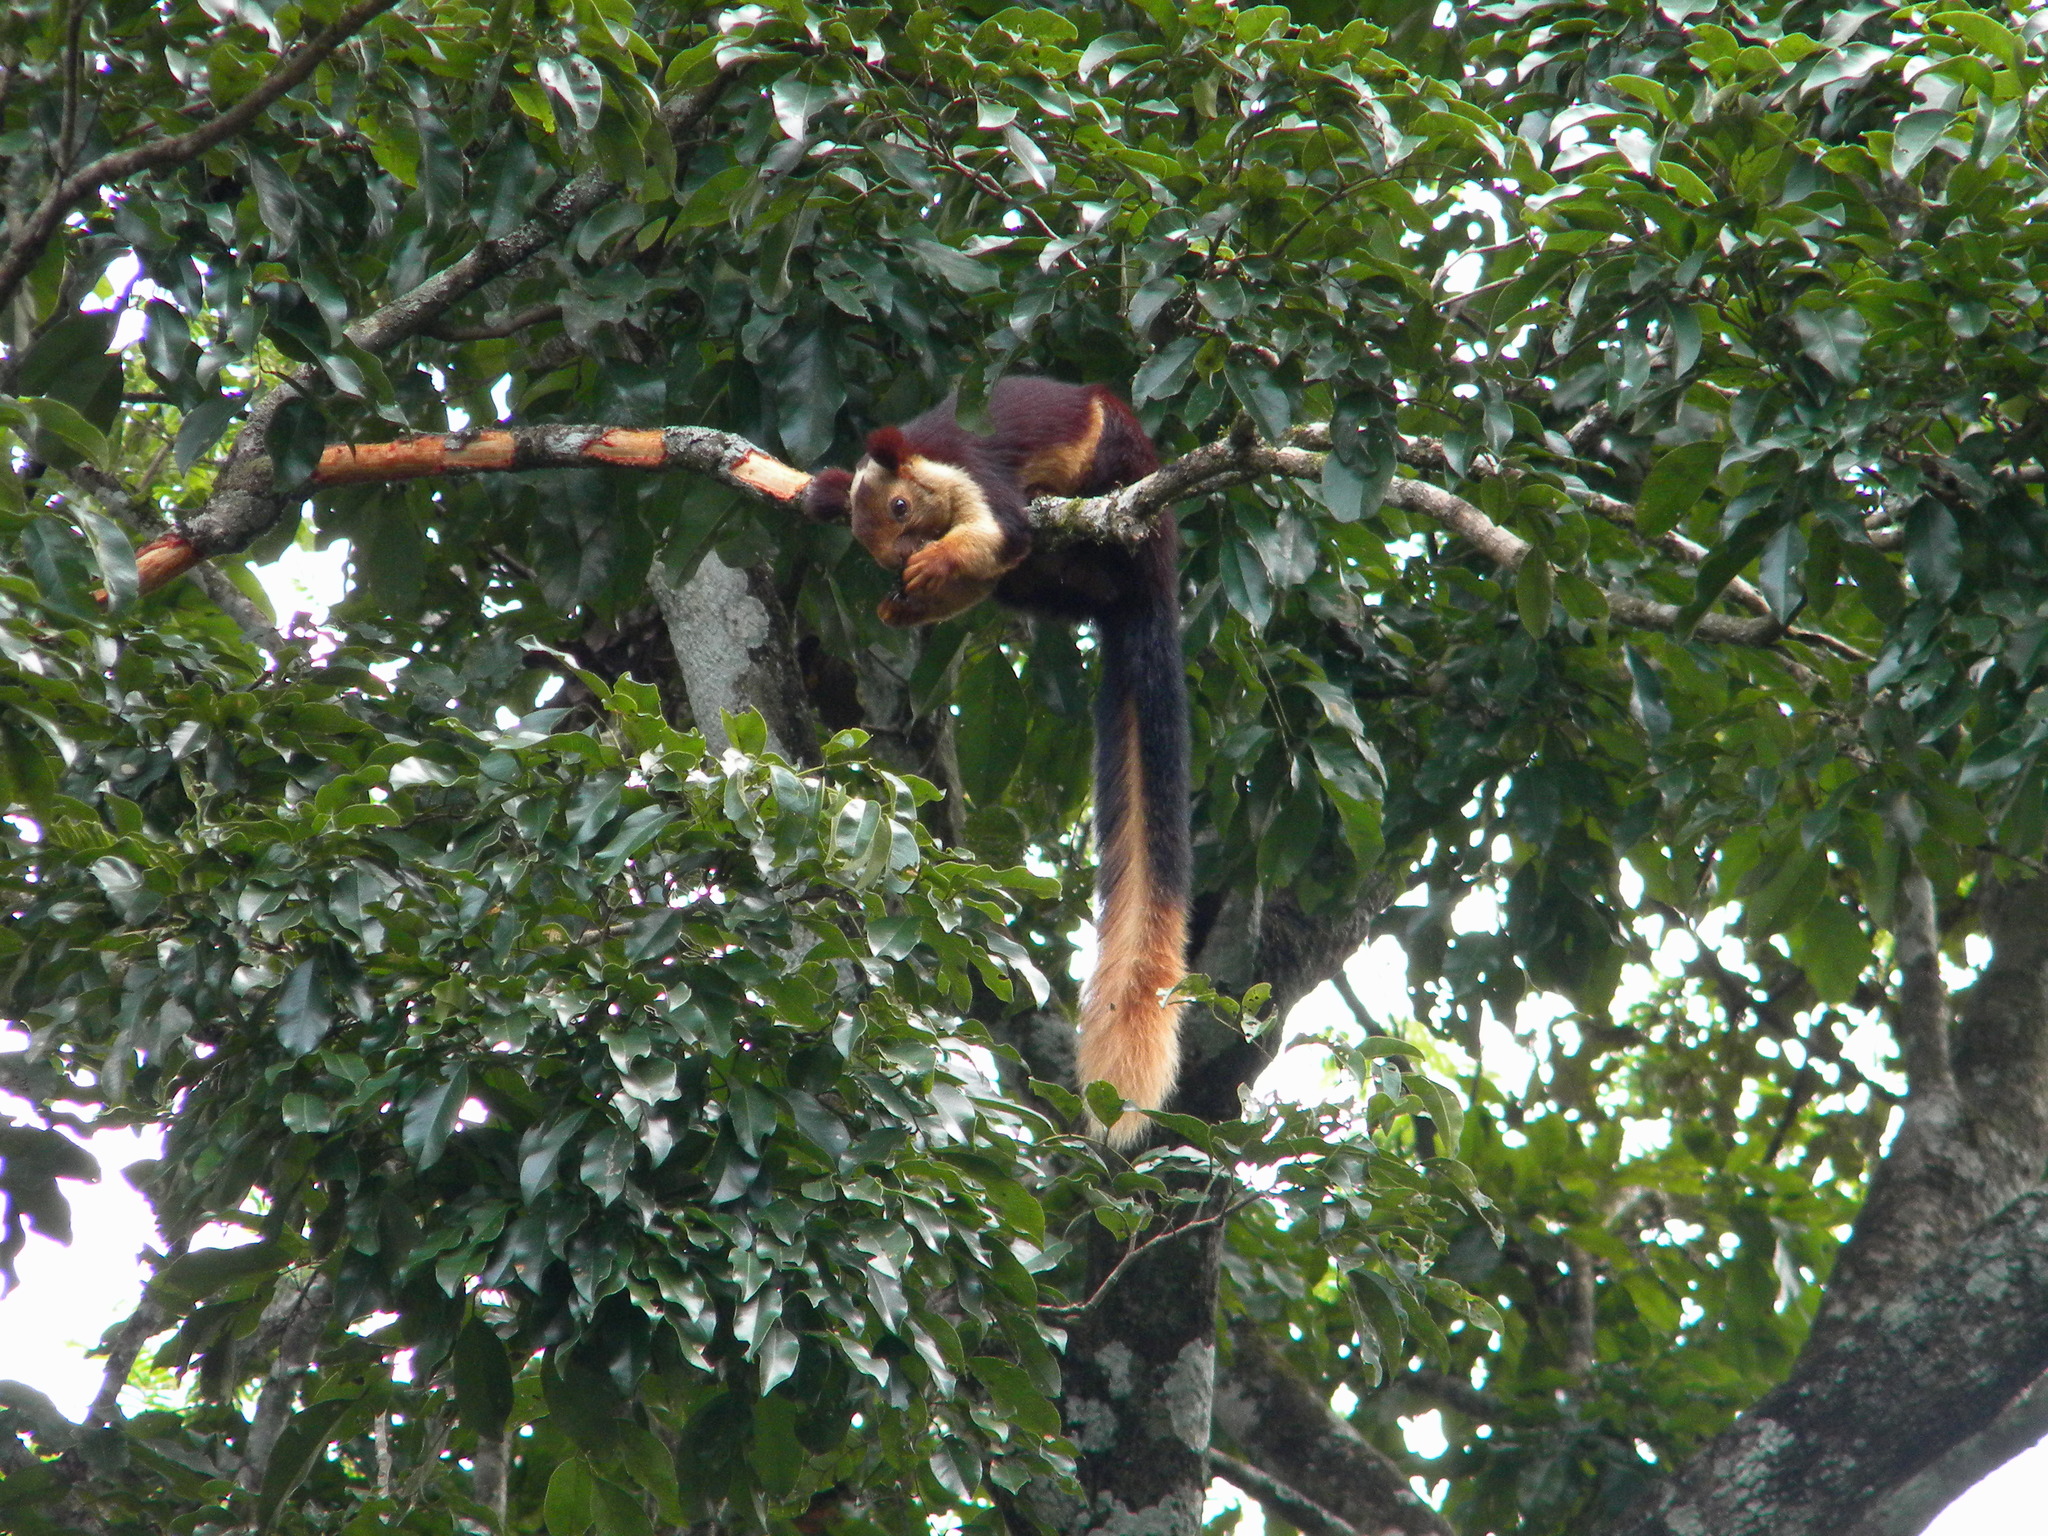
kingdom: Animalia
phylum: Chordata
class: Mammalia
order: Rodentia
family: Sciuridae
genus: Ratufa
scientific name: Ratufa indica
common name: Indian giant squirrel
